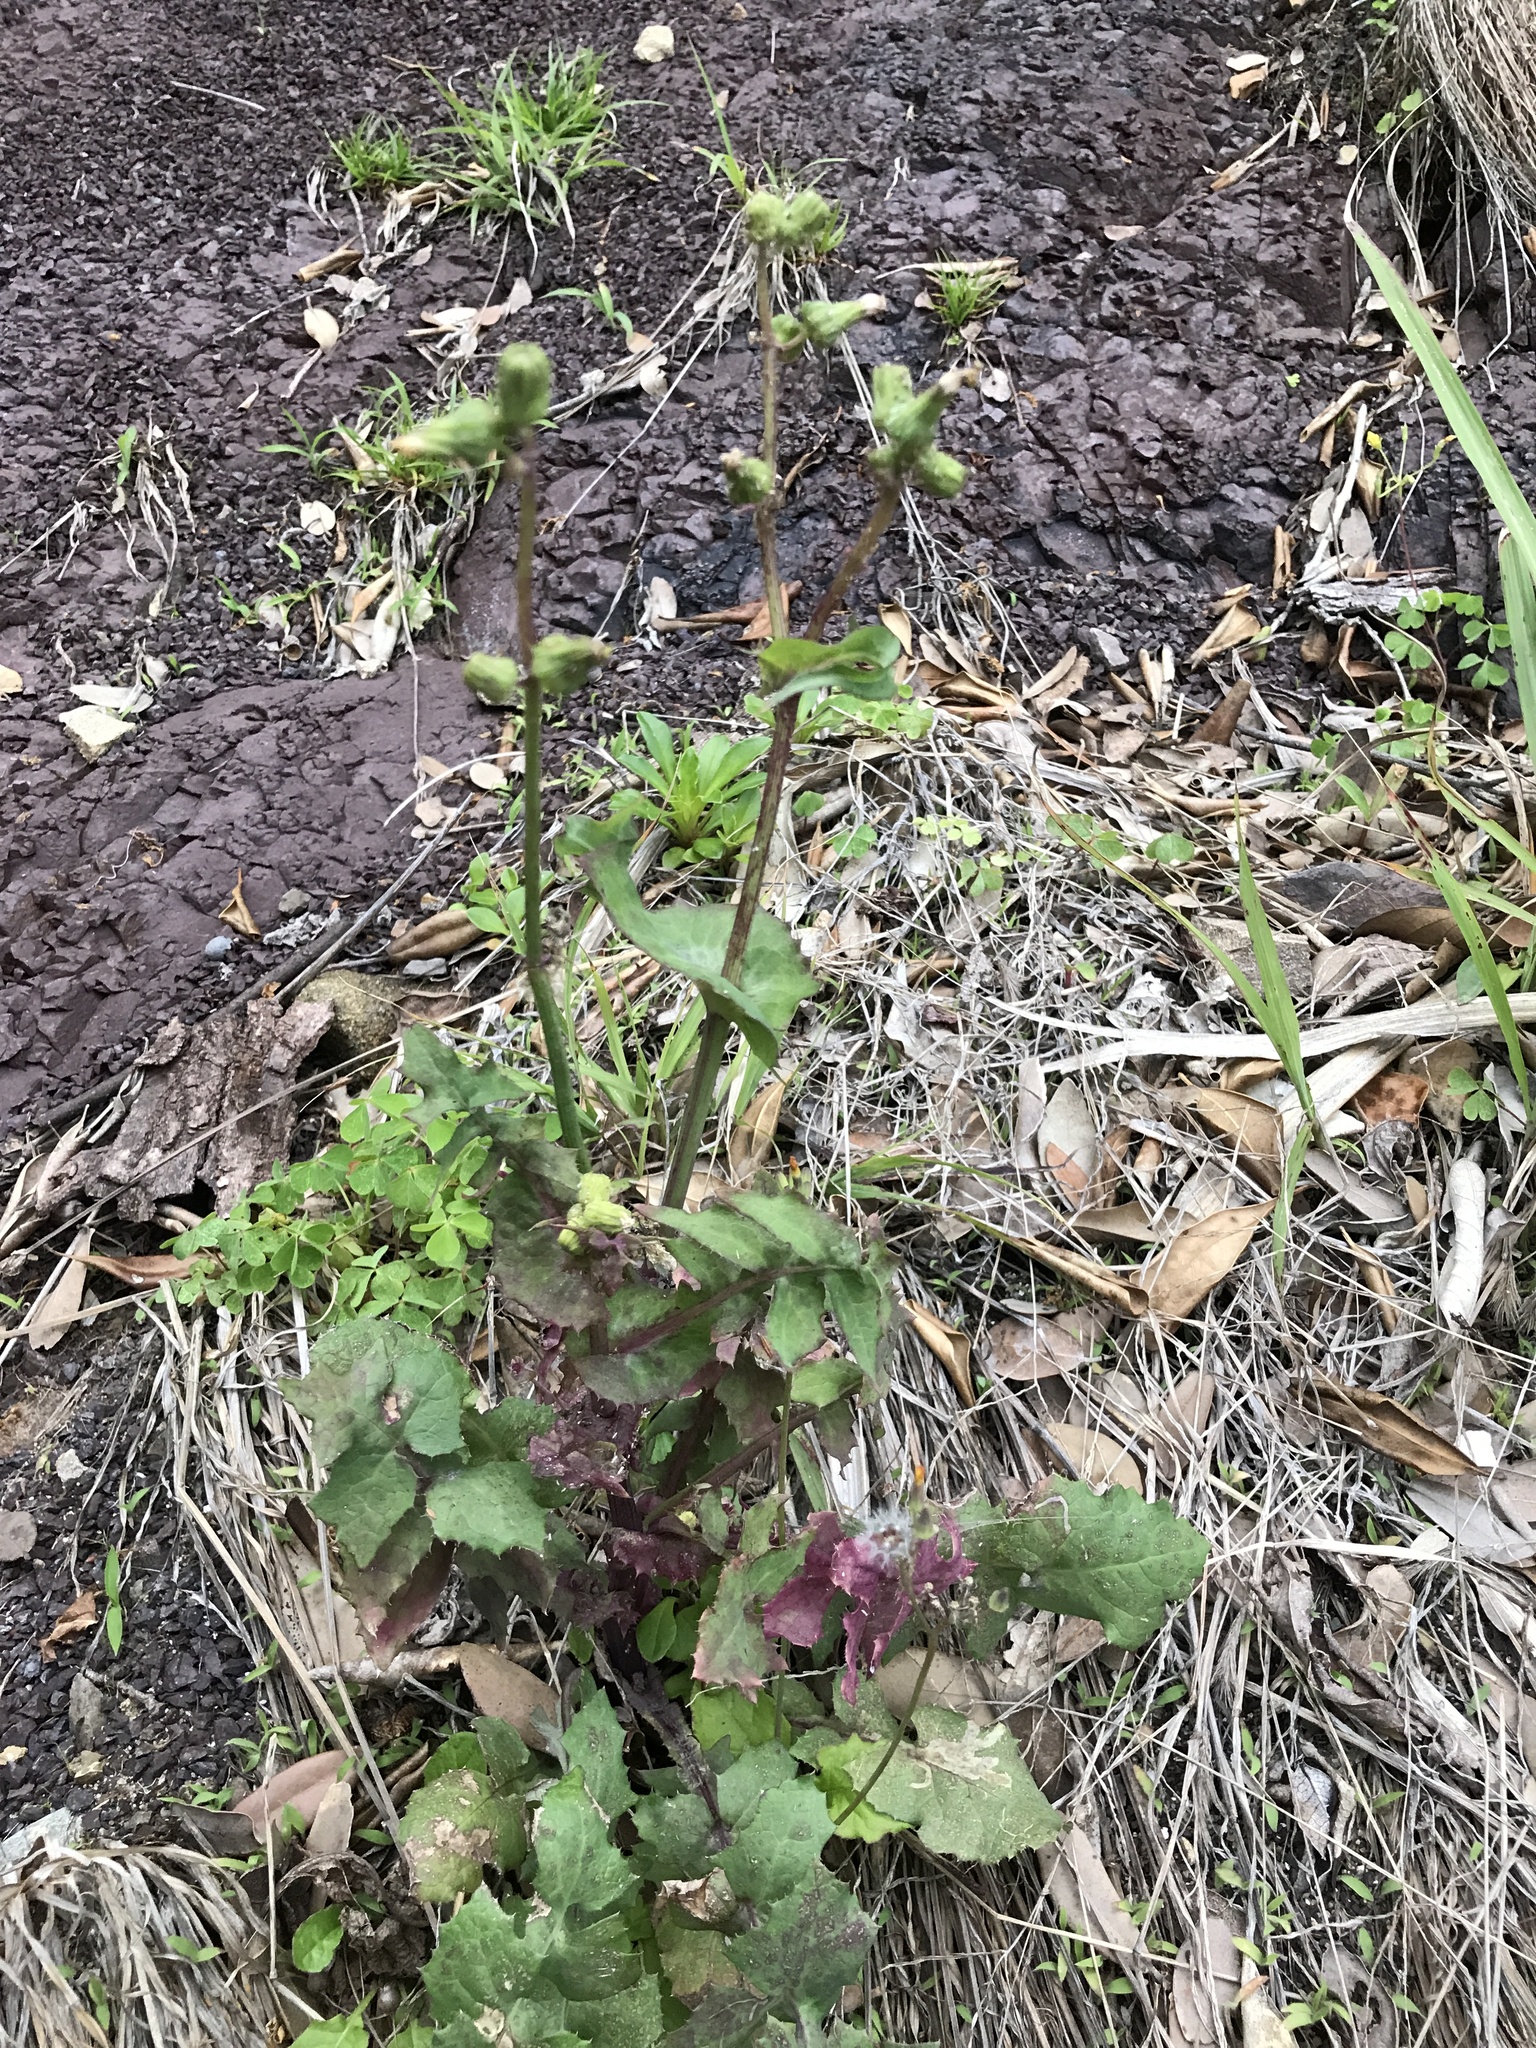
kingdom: Plantae
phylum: Tracheophyta
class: Magnoliopsida
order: Asterales
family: Asteraceae
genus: Sonchus
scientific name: Sonchus asper
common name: Prickly sow-thistle
